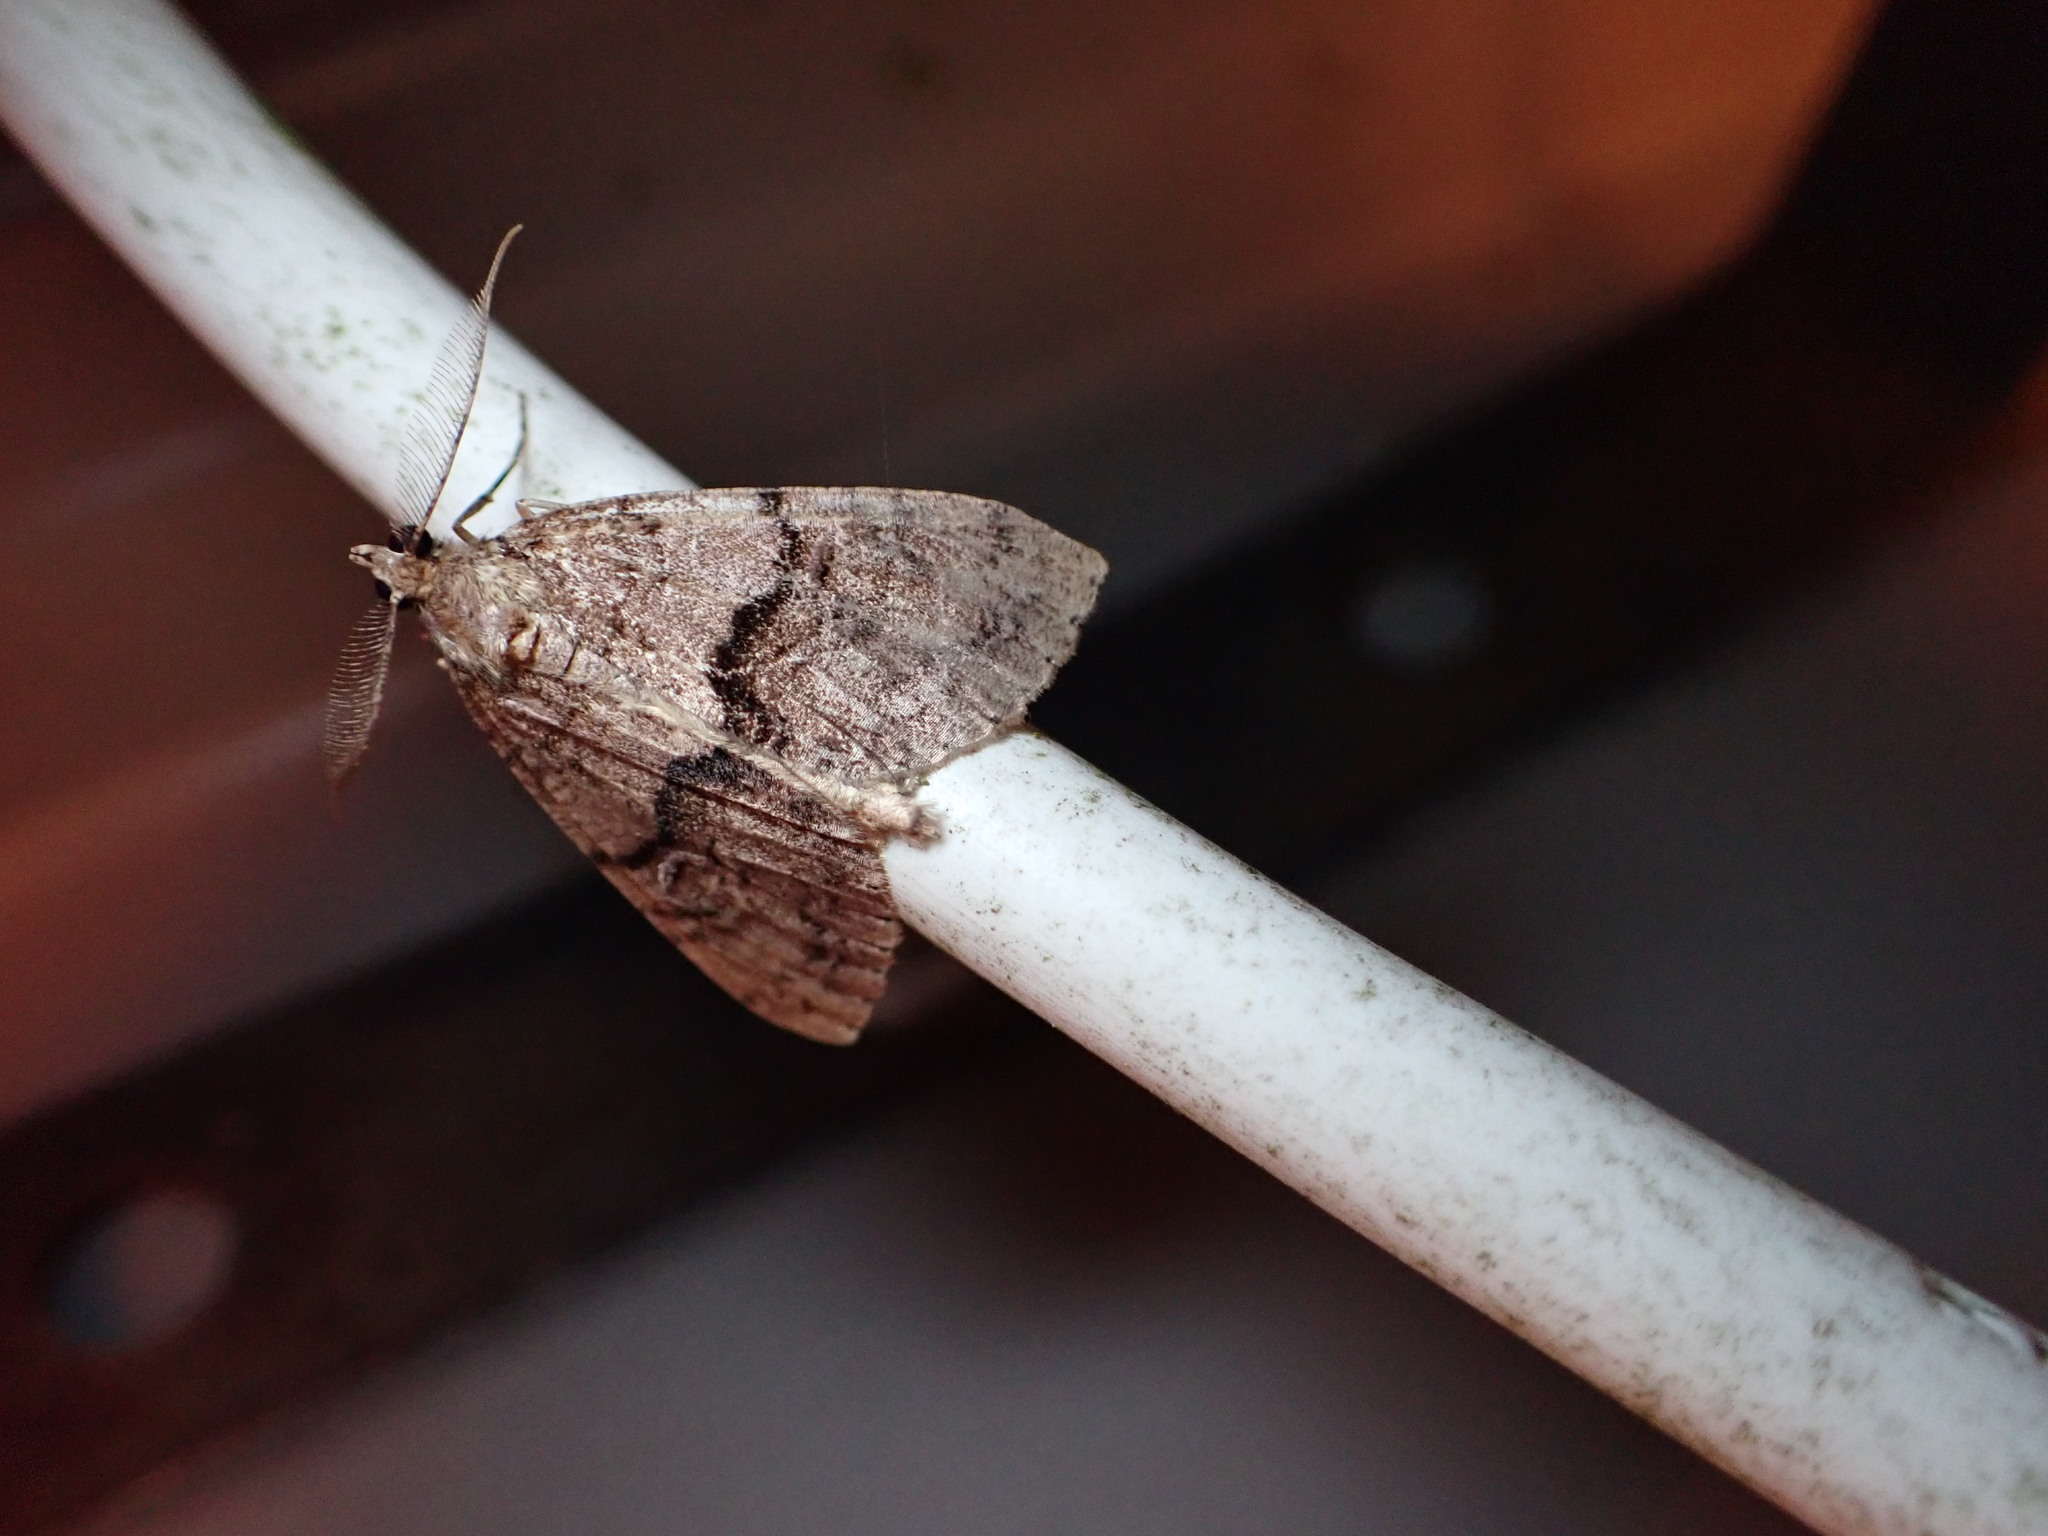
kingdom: Animalia
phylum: Arthropoda
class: Insecta
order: Lepidoptera
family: Geometridae
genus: Pseudocoremia
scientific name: Pseudocoremia suavis
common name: Common forest looper
